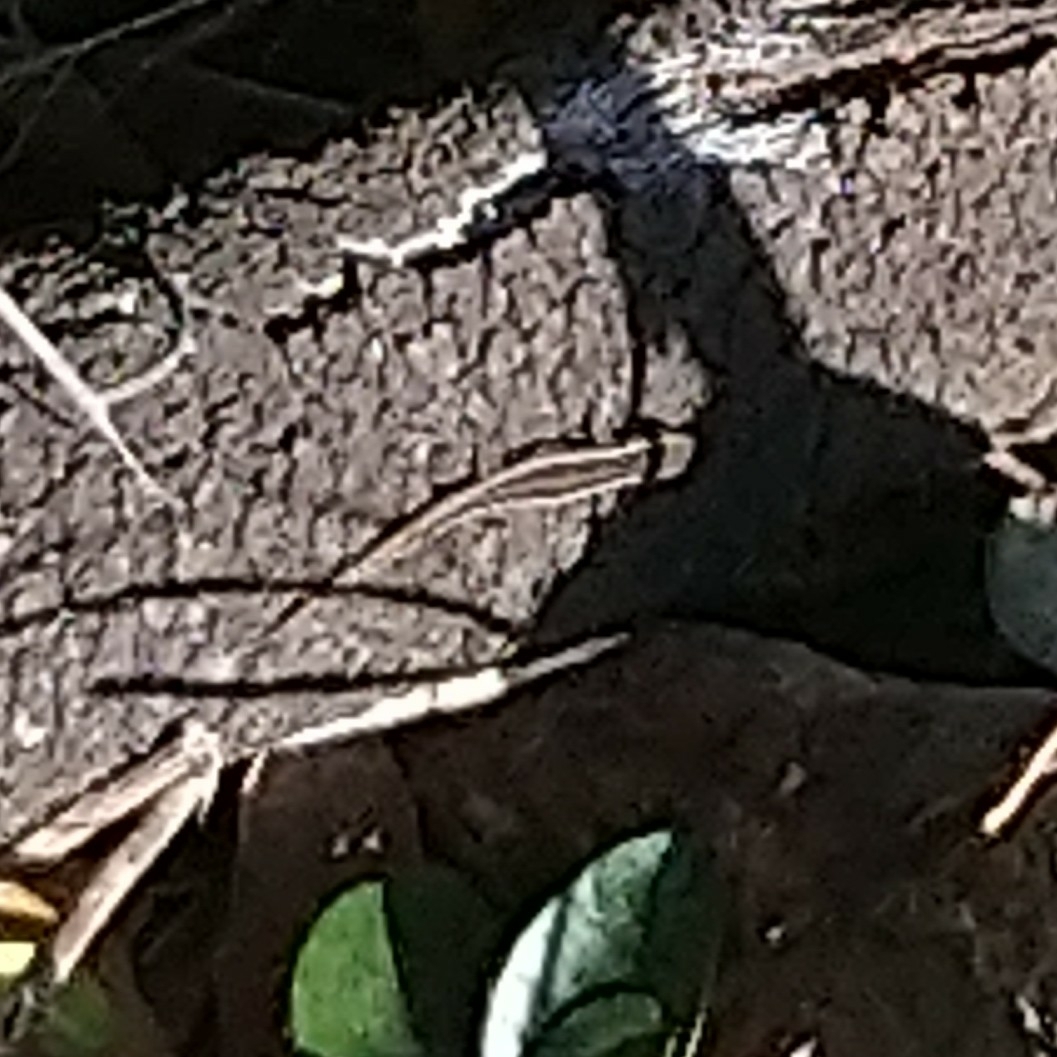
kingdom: Animalia
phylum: Chordata
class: Squamata
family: Gekkonidae
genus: Lygodactylus
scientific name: Lygodactylus capensis
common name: Cape dwarf gecko
